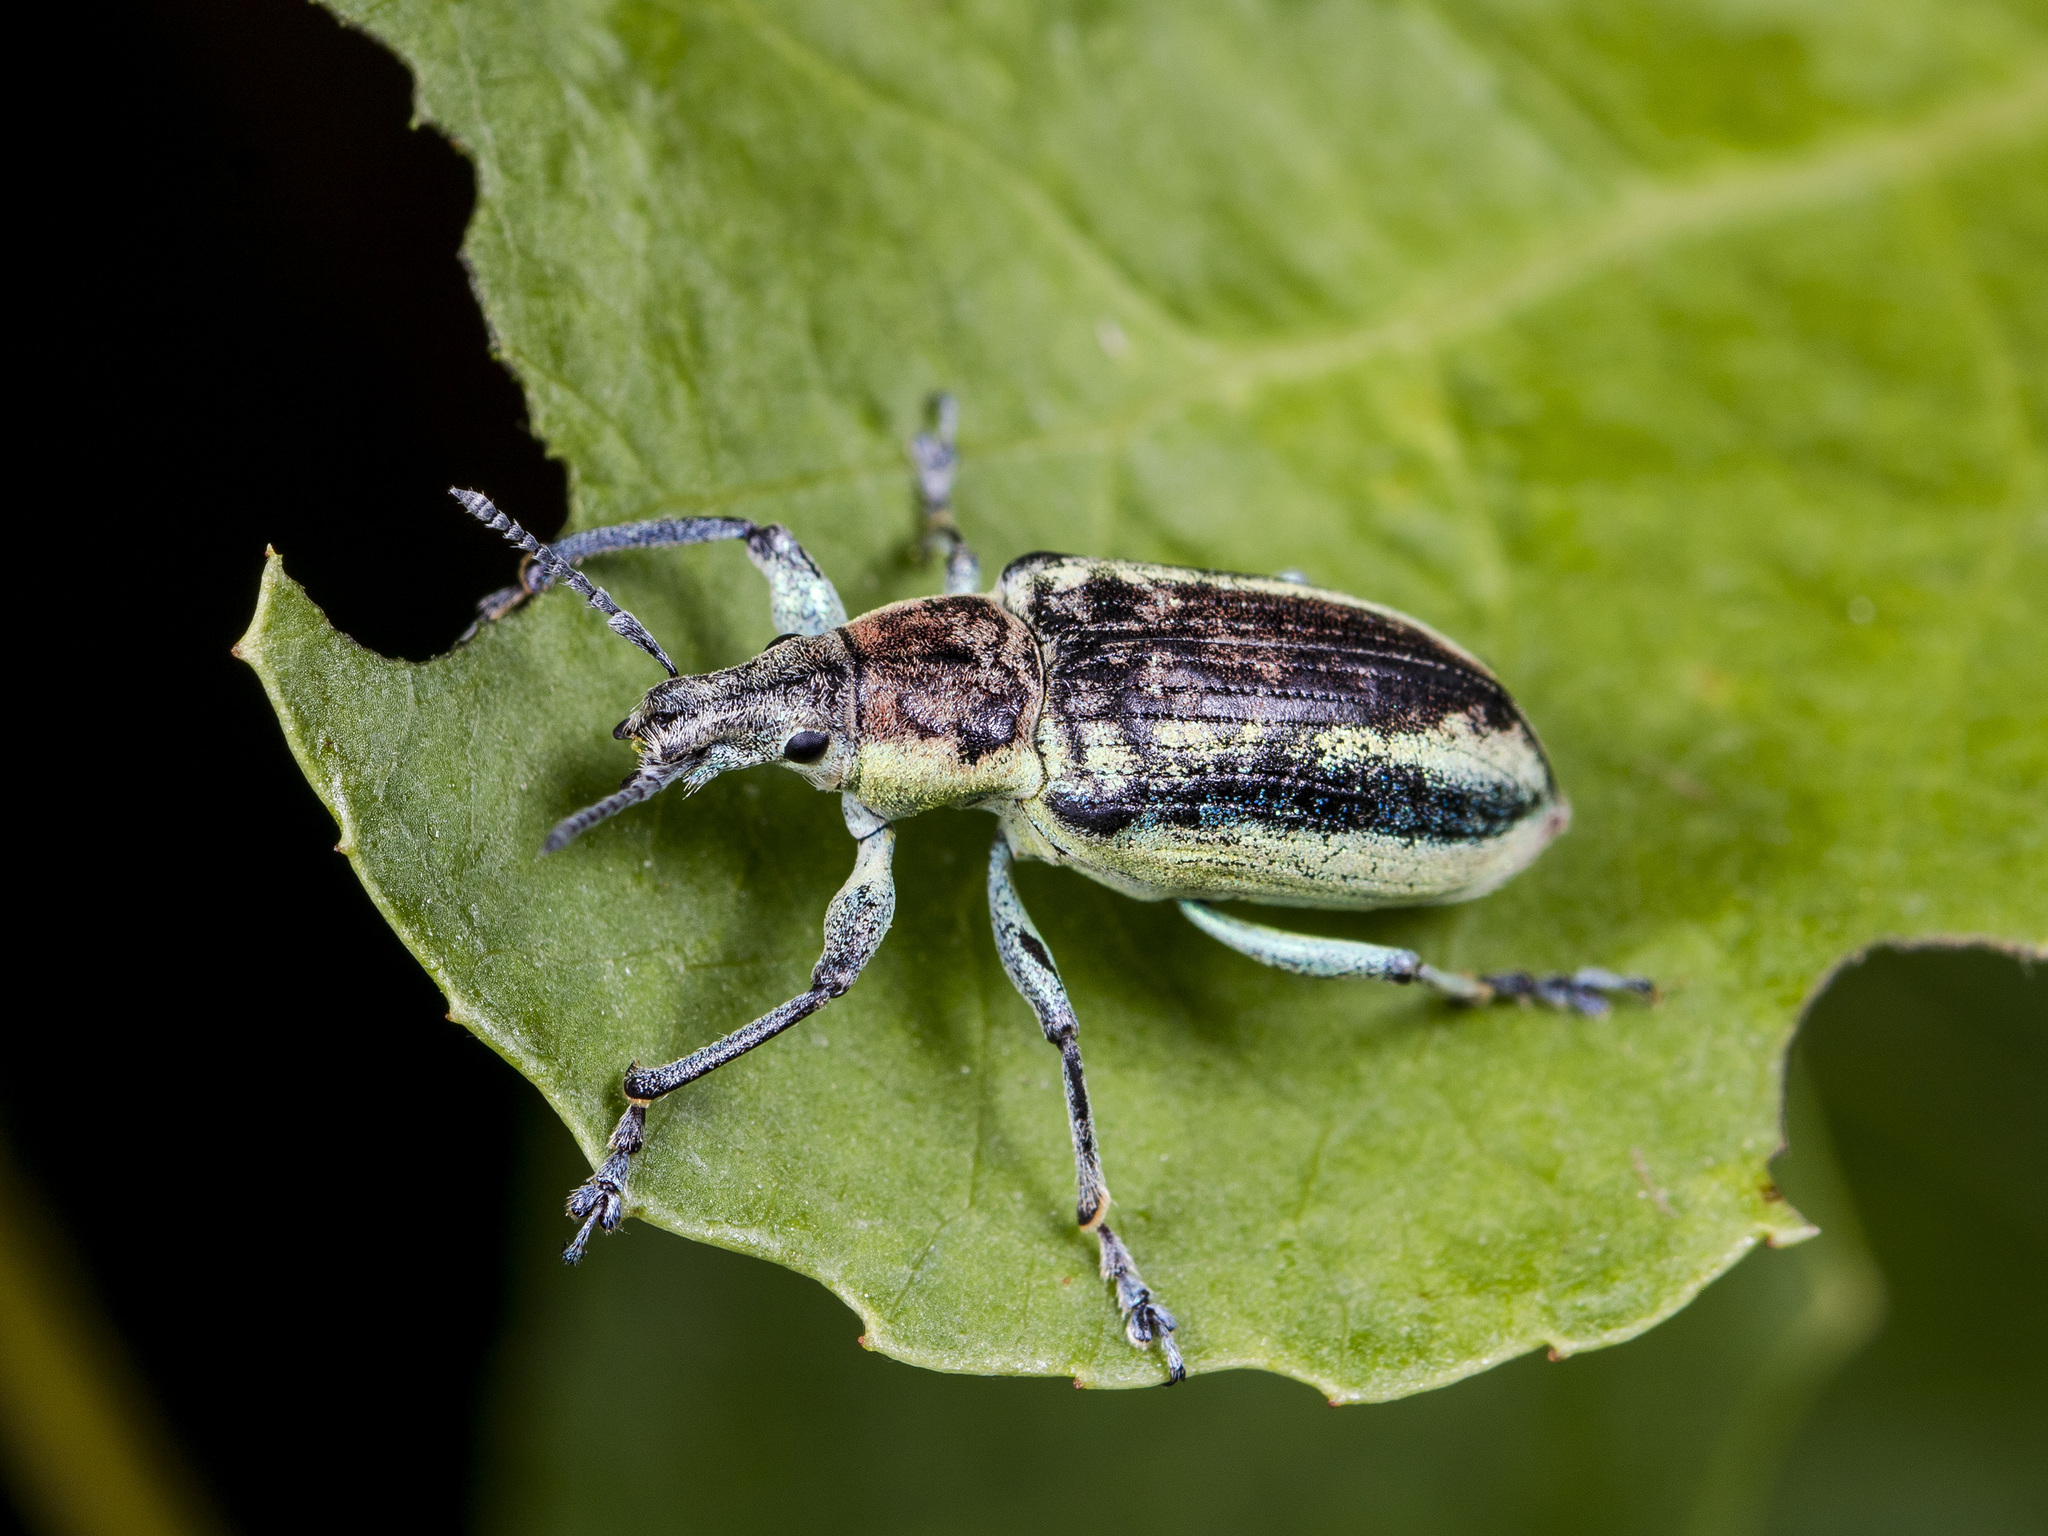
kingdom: Animalia
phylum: Arthropoda
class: Insecta
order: Coleoptera
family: Curculionidae
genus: Chlorophanus
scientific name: Chlorophanus magnificus
